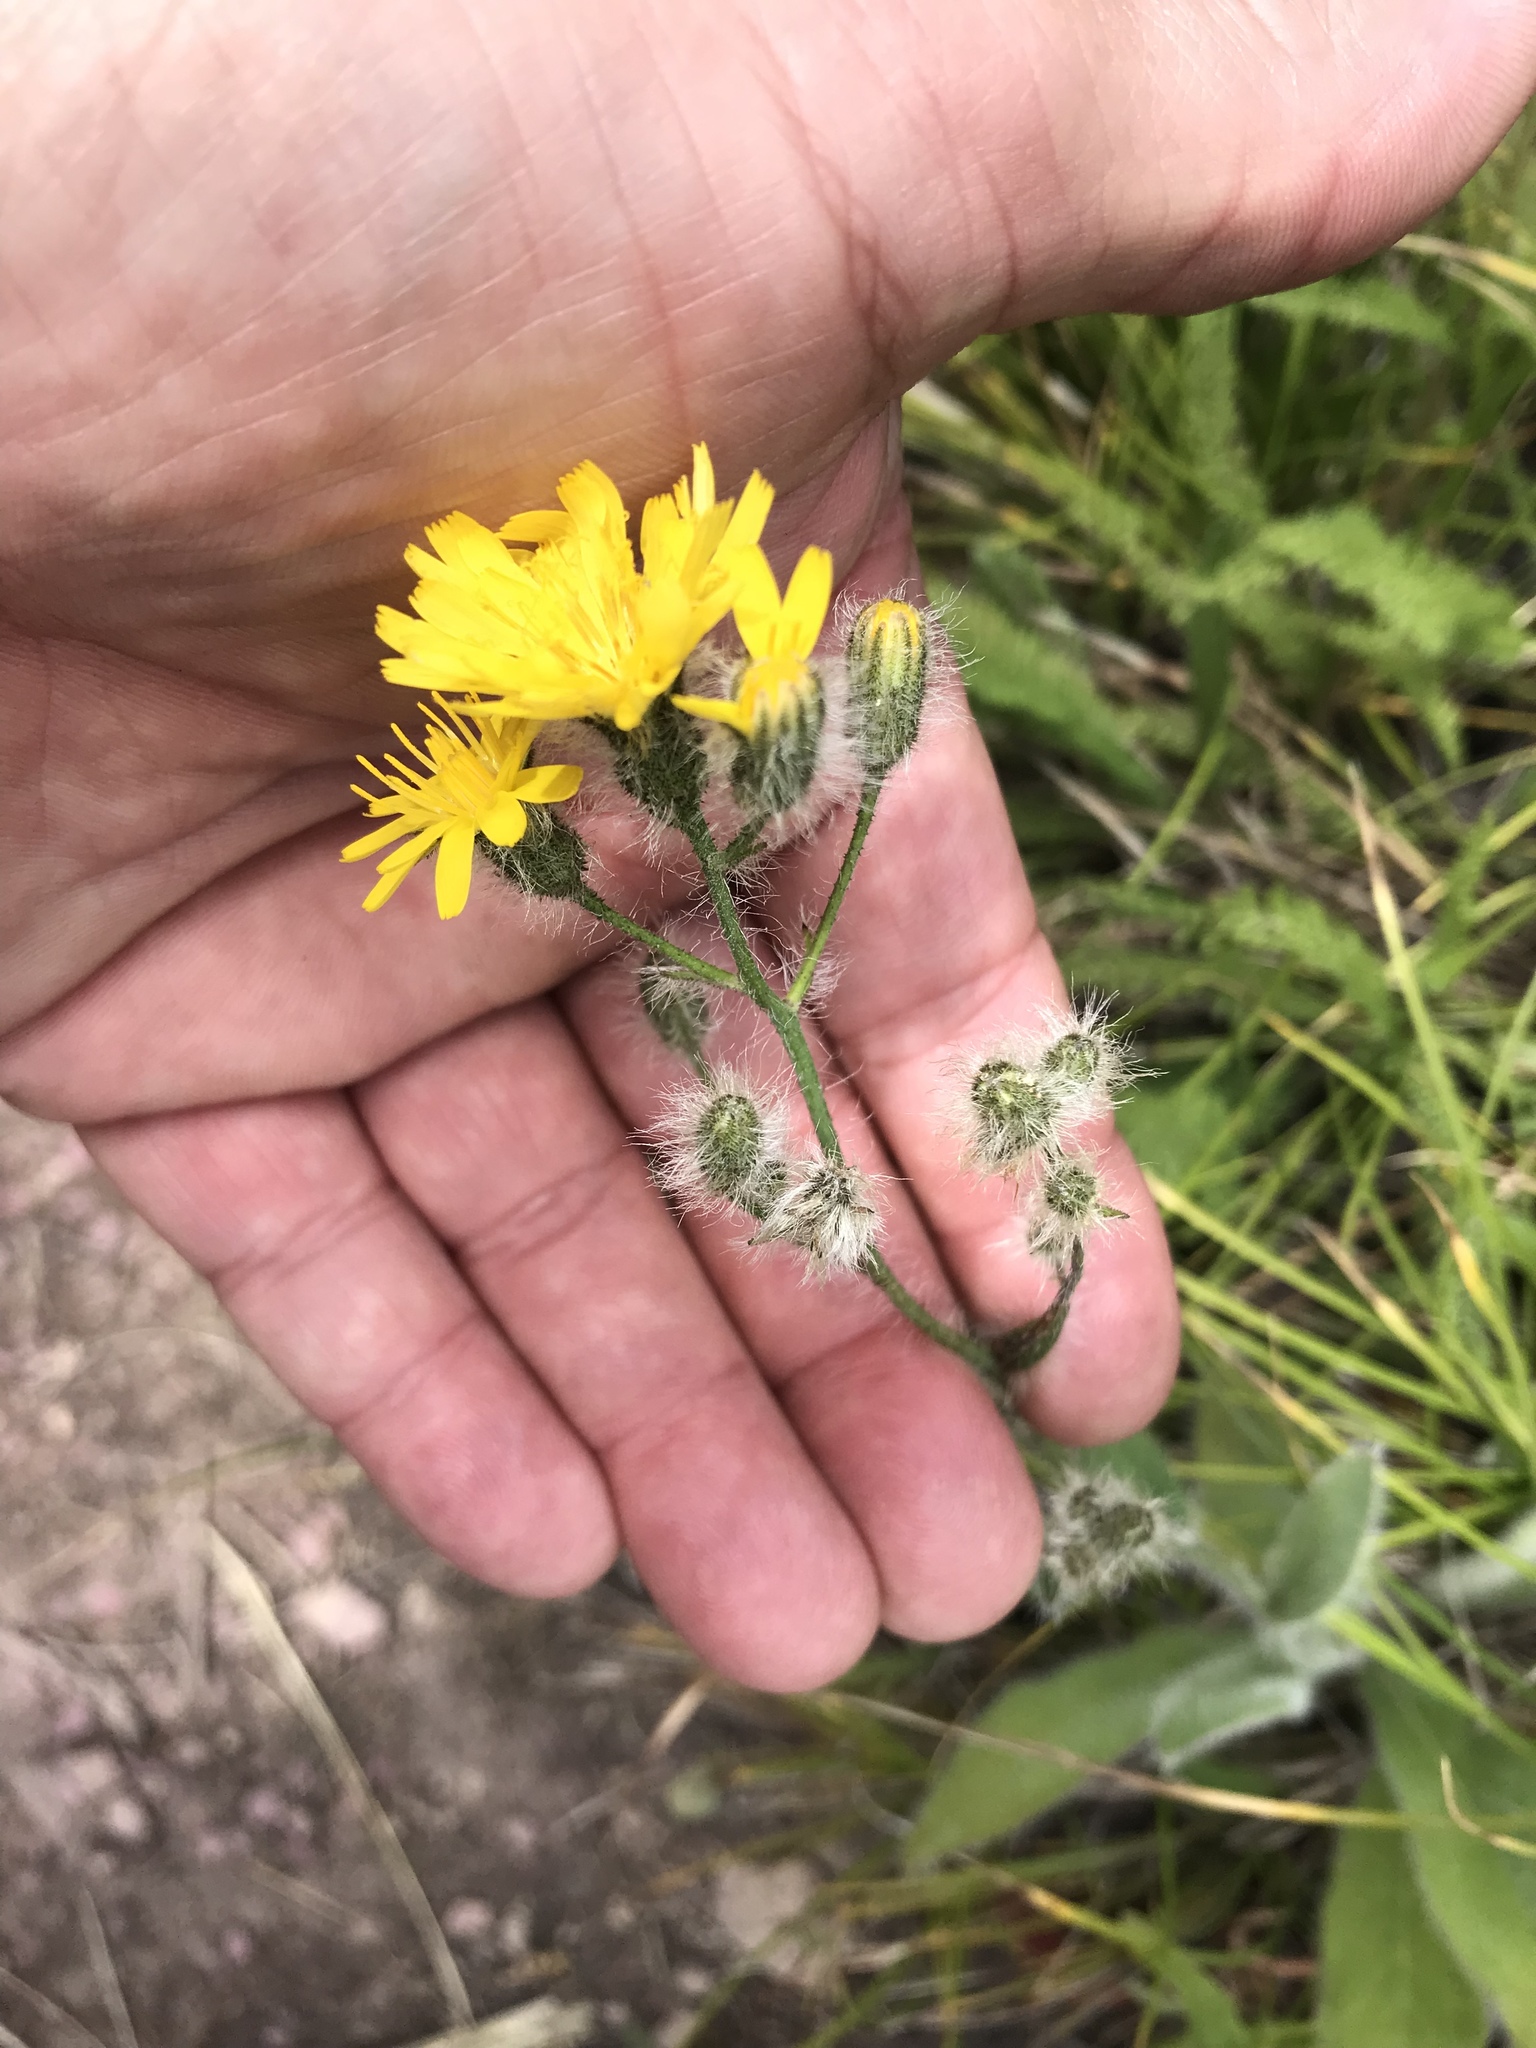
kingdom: Plantae
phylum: Tracheophyta
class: Magnoliopsida
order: Asterales
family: Asteraceae
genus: Pilosella
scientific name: Pilosella caespitosa
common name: Yellow fox-and-cubs
